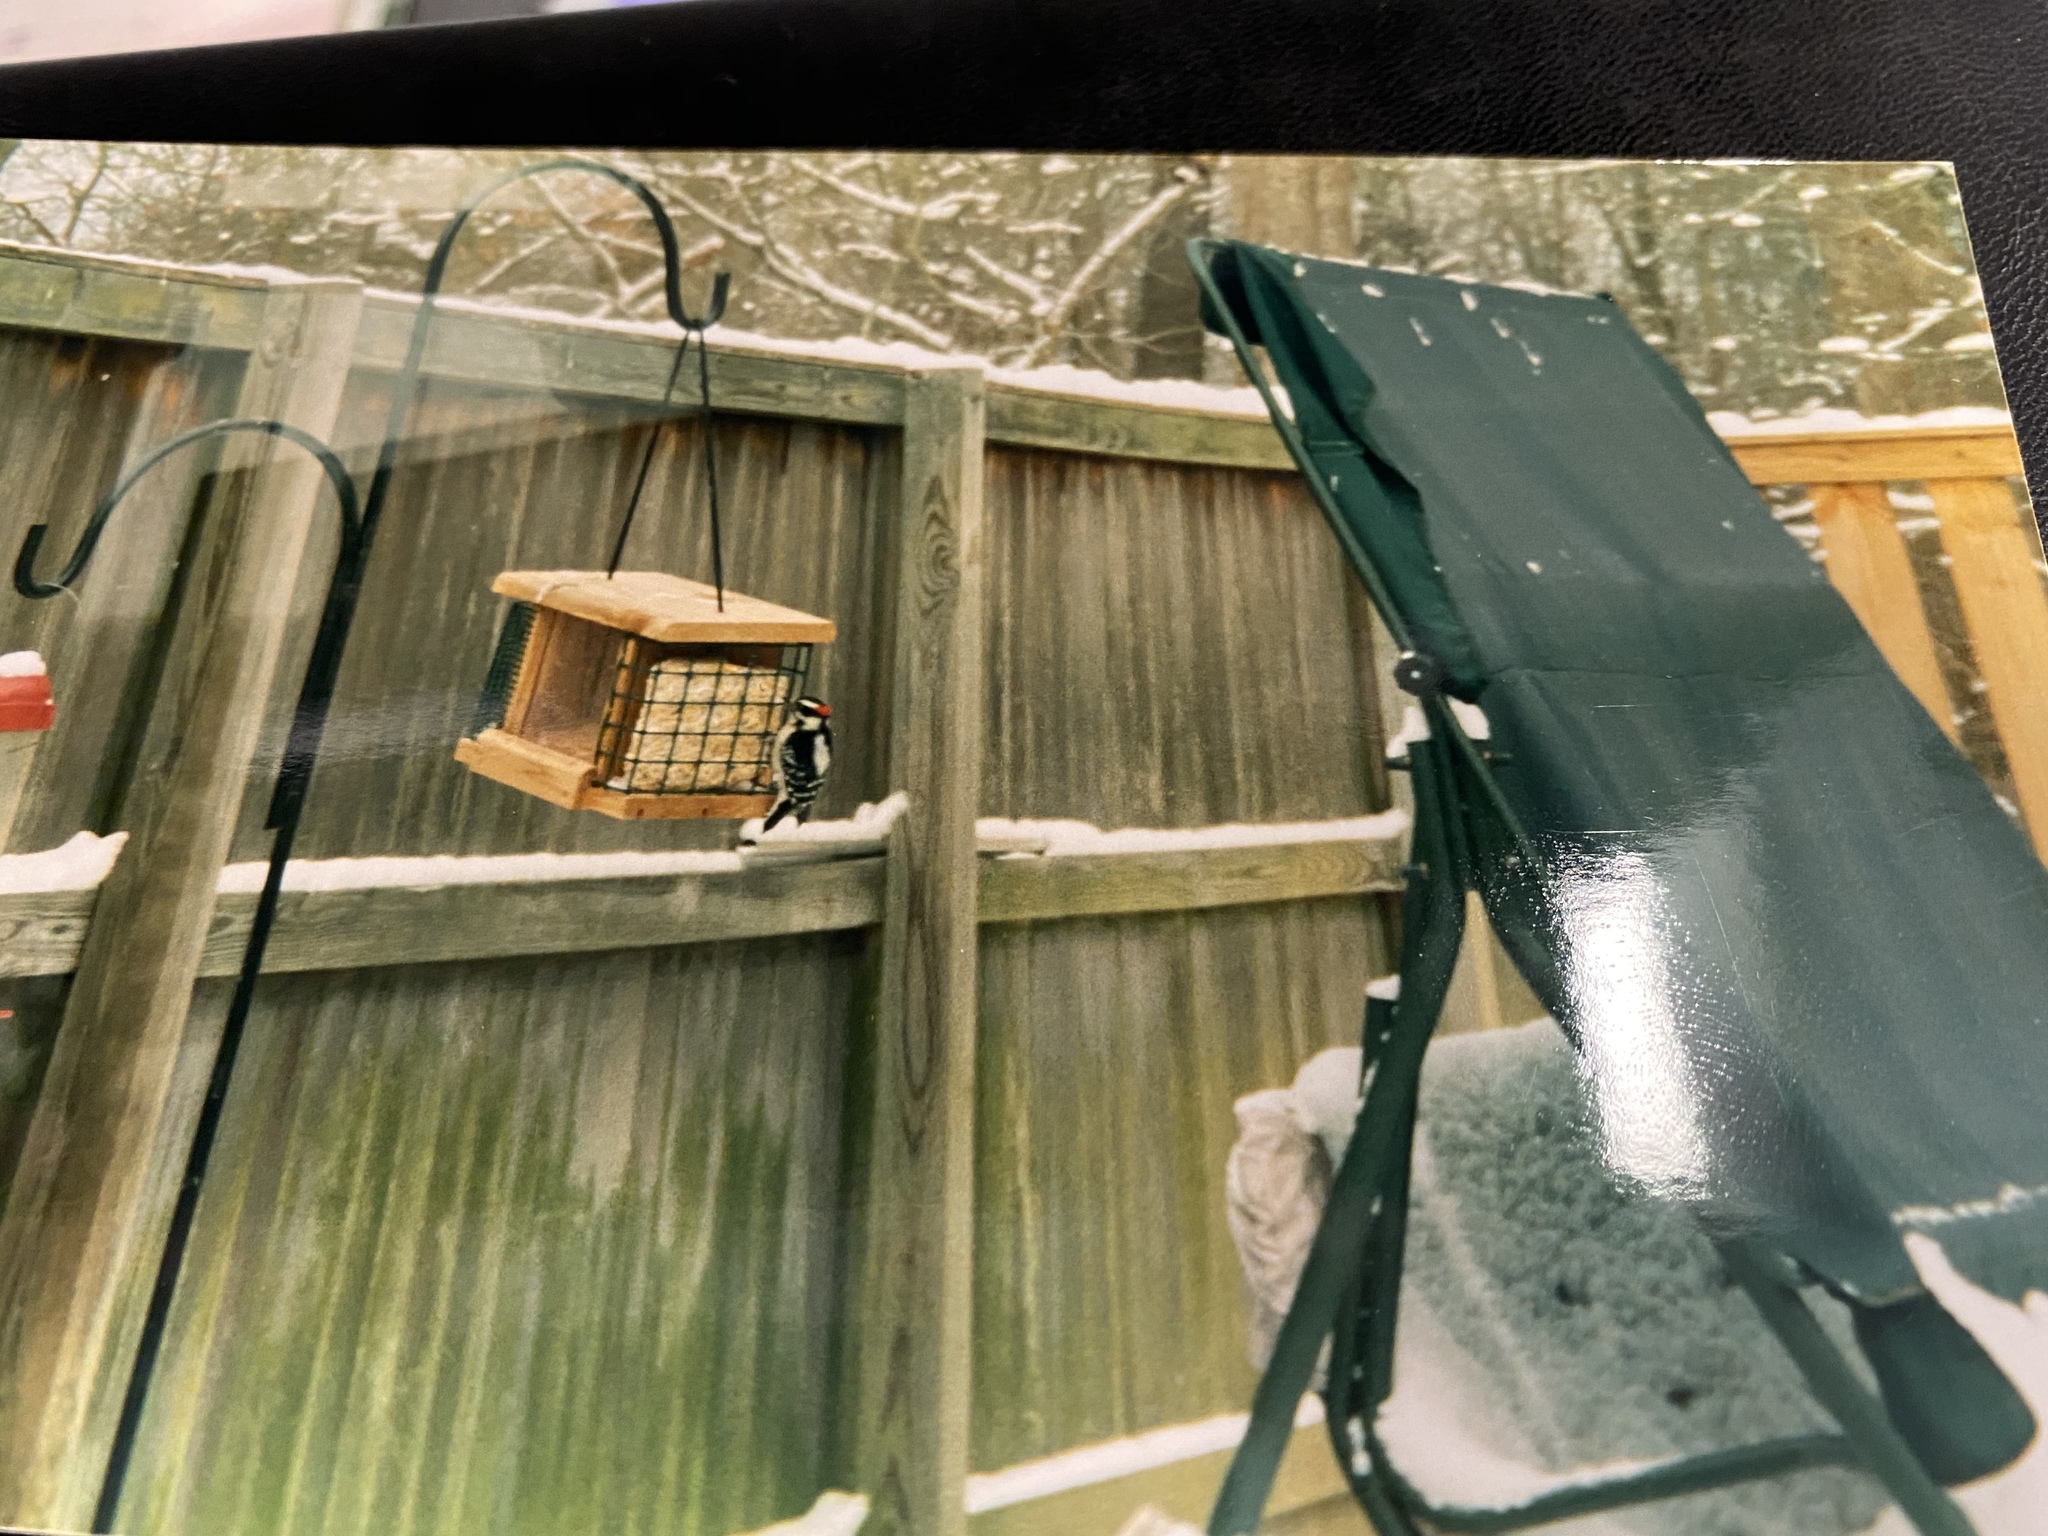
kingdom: Animalia
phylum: Chordata
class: Aves
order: Piciformes
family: Picidae
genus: Dryobates
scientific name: Dryobates pubescens
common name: Downy woodpecker
